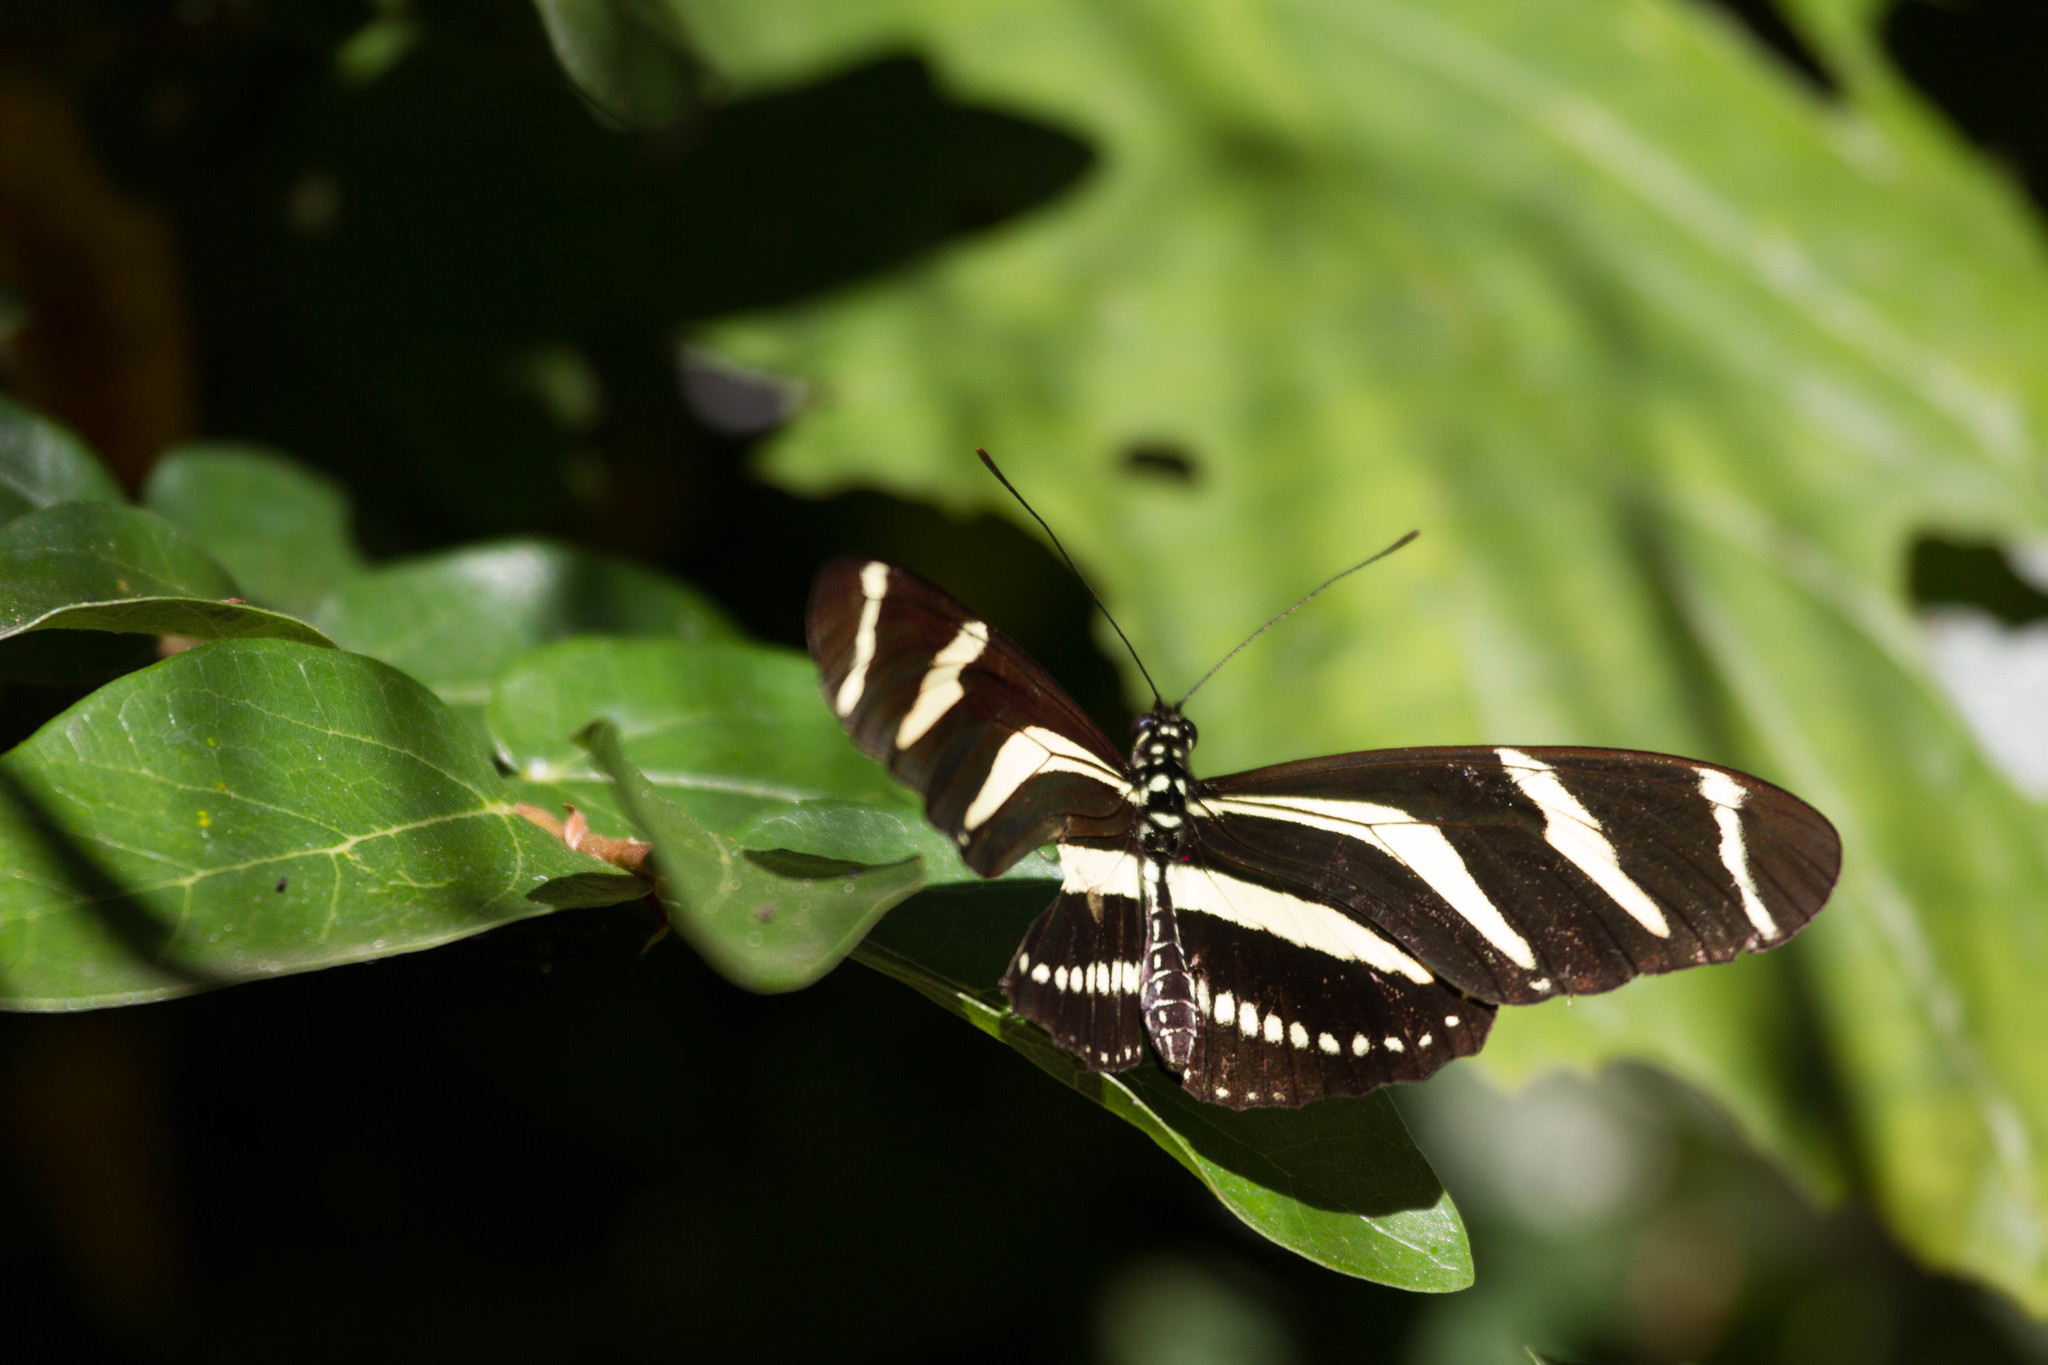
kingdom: Animalia
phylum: Arthropoda
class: Insecta
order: Lepidoptera
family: Nymphalidae
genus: Heliconius
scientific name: Heliconius charithonia
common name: Zebra long wing
